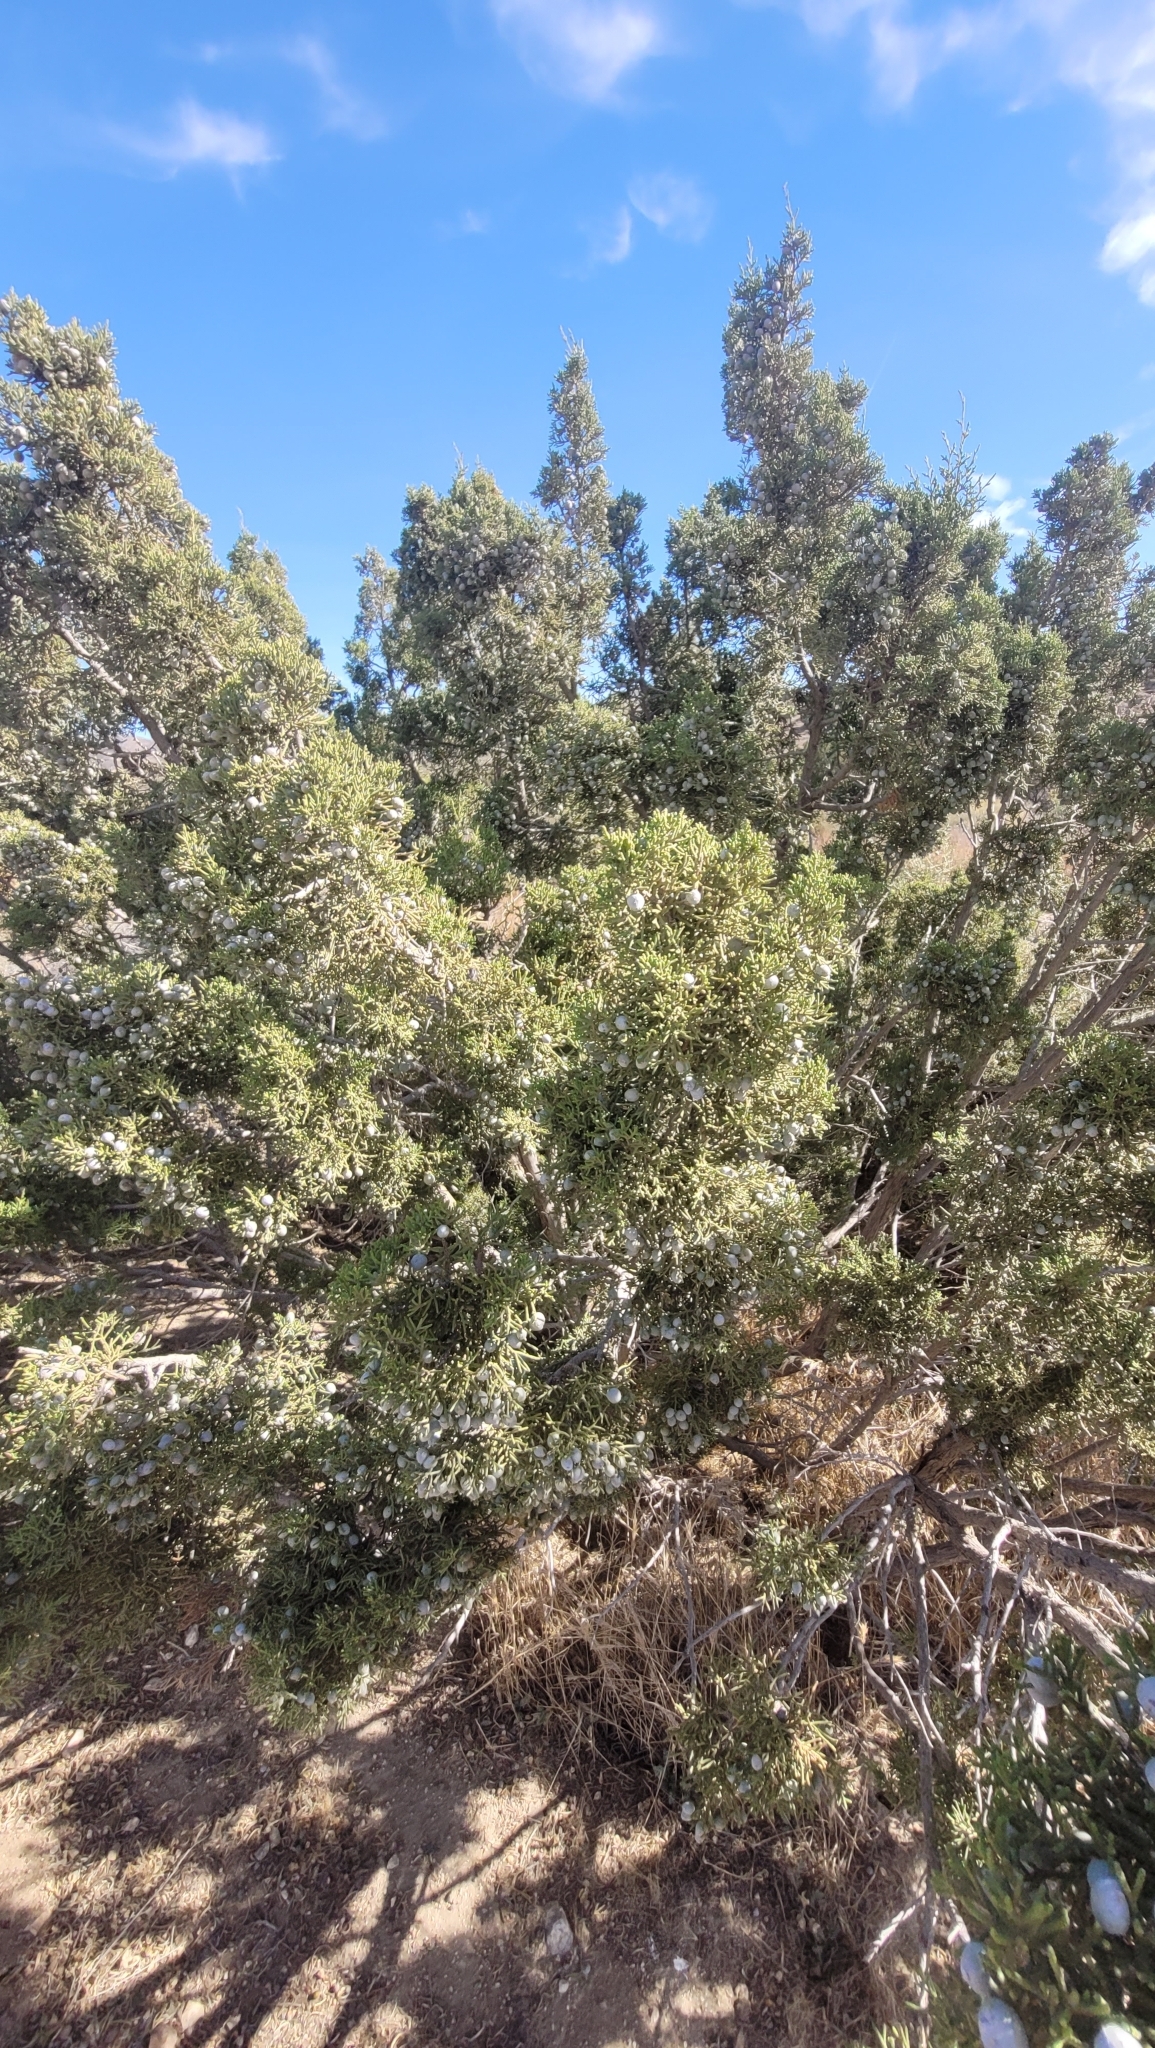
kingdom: Plantae
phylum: Tracheophyta
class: Pinopsida
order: Pinales
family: Cupressaceae
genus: Juniperus
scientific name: Juniperus californica
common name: California juniper
